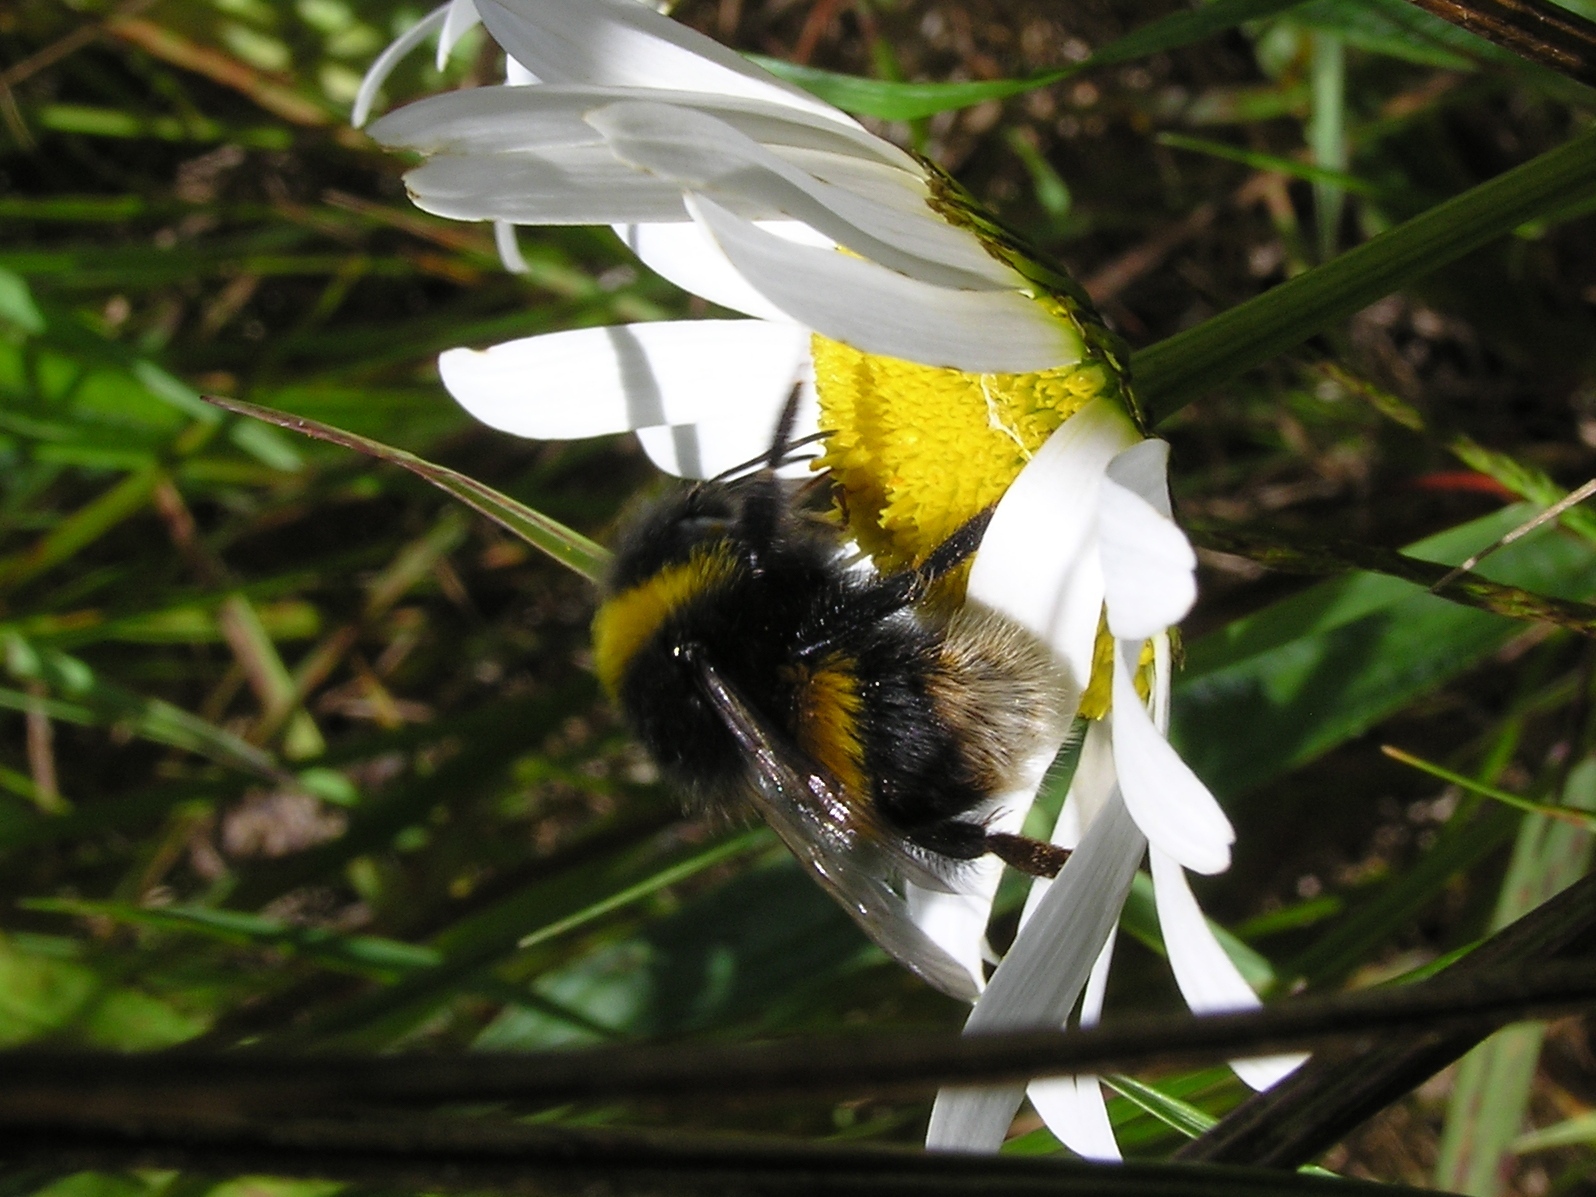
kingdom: Animalia
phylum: Arthropoda
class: Insecta
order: Hymenoptera
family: Apidae
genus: Bombus
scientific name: Bombus terrestris
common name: Buff-tailed bumblebee
